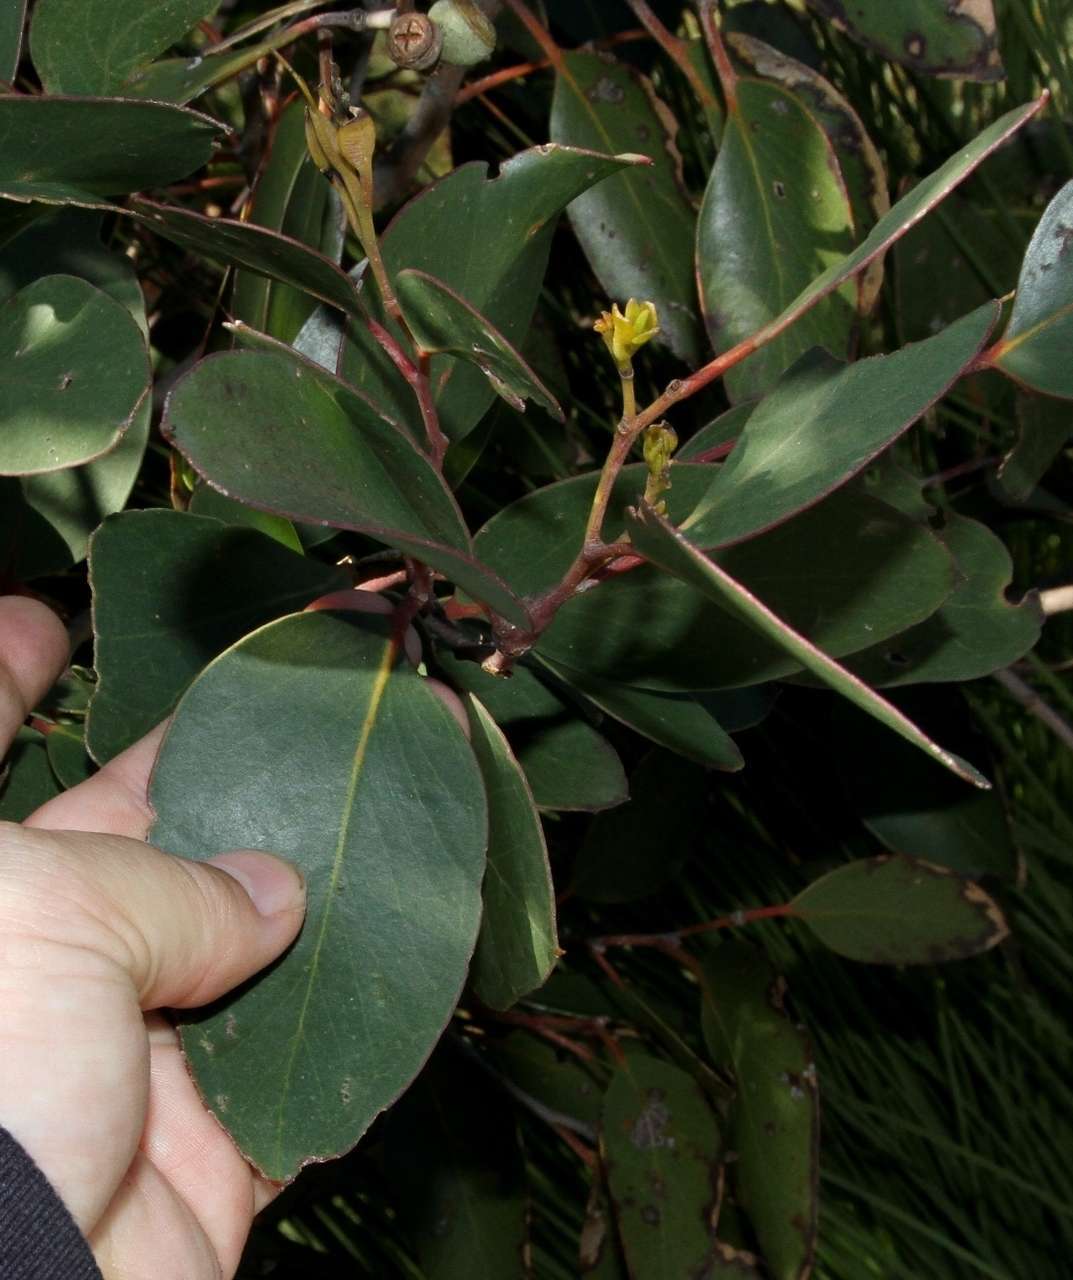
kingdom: Plantae
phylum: Tracheophyta
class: Magnoliopsida
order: Myrtales
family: Myrtaceae
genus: Eucalyptus
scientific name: Eucalyptus baxteri
